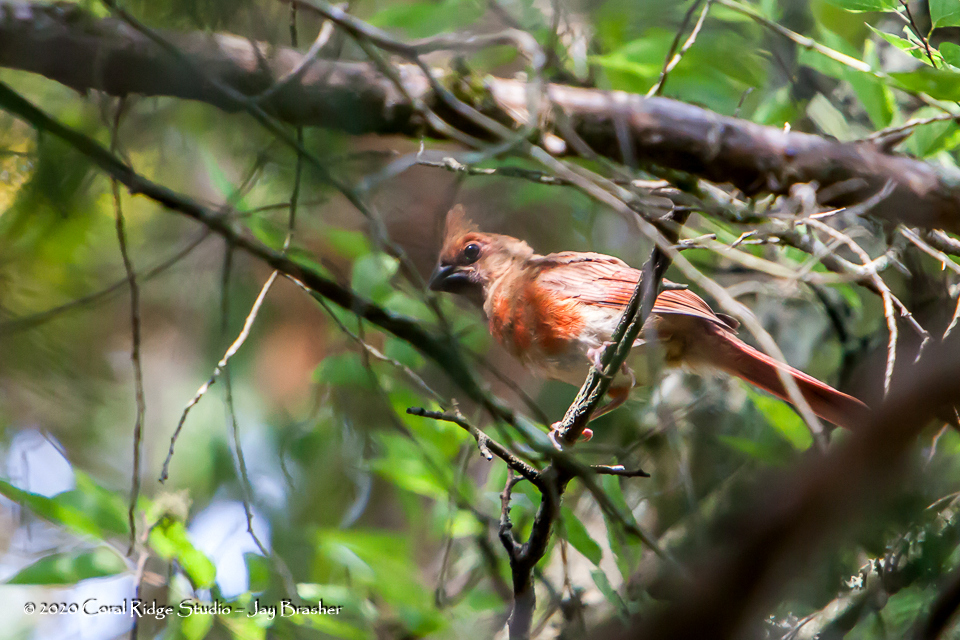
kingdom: Animalia
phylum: Chordata
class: Aves
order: Passeriformes
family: Cardinalidae
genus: Cardinalis
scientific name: Cardinalis cardinalis
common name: Northern cardinal
